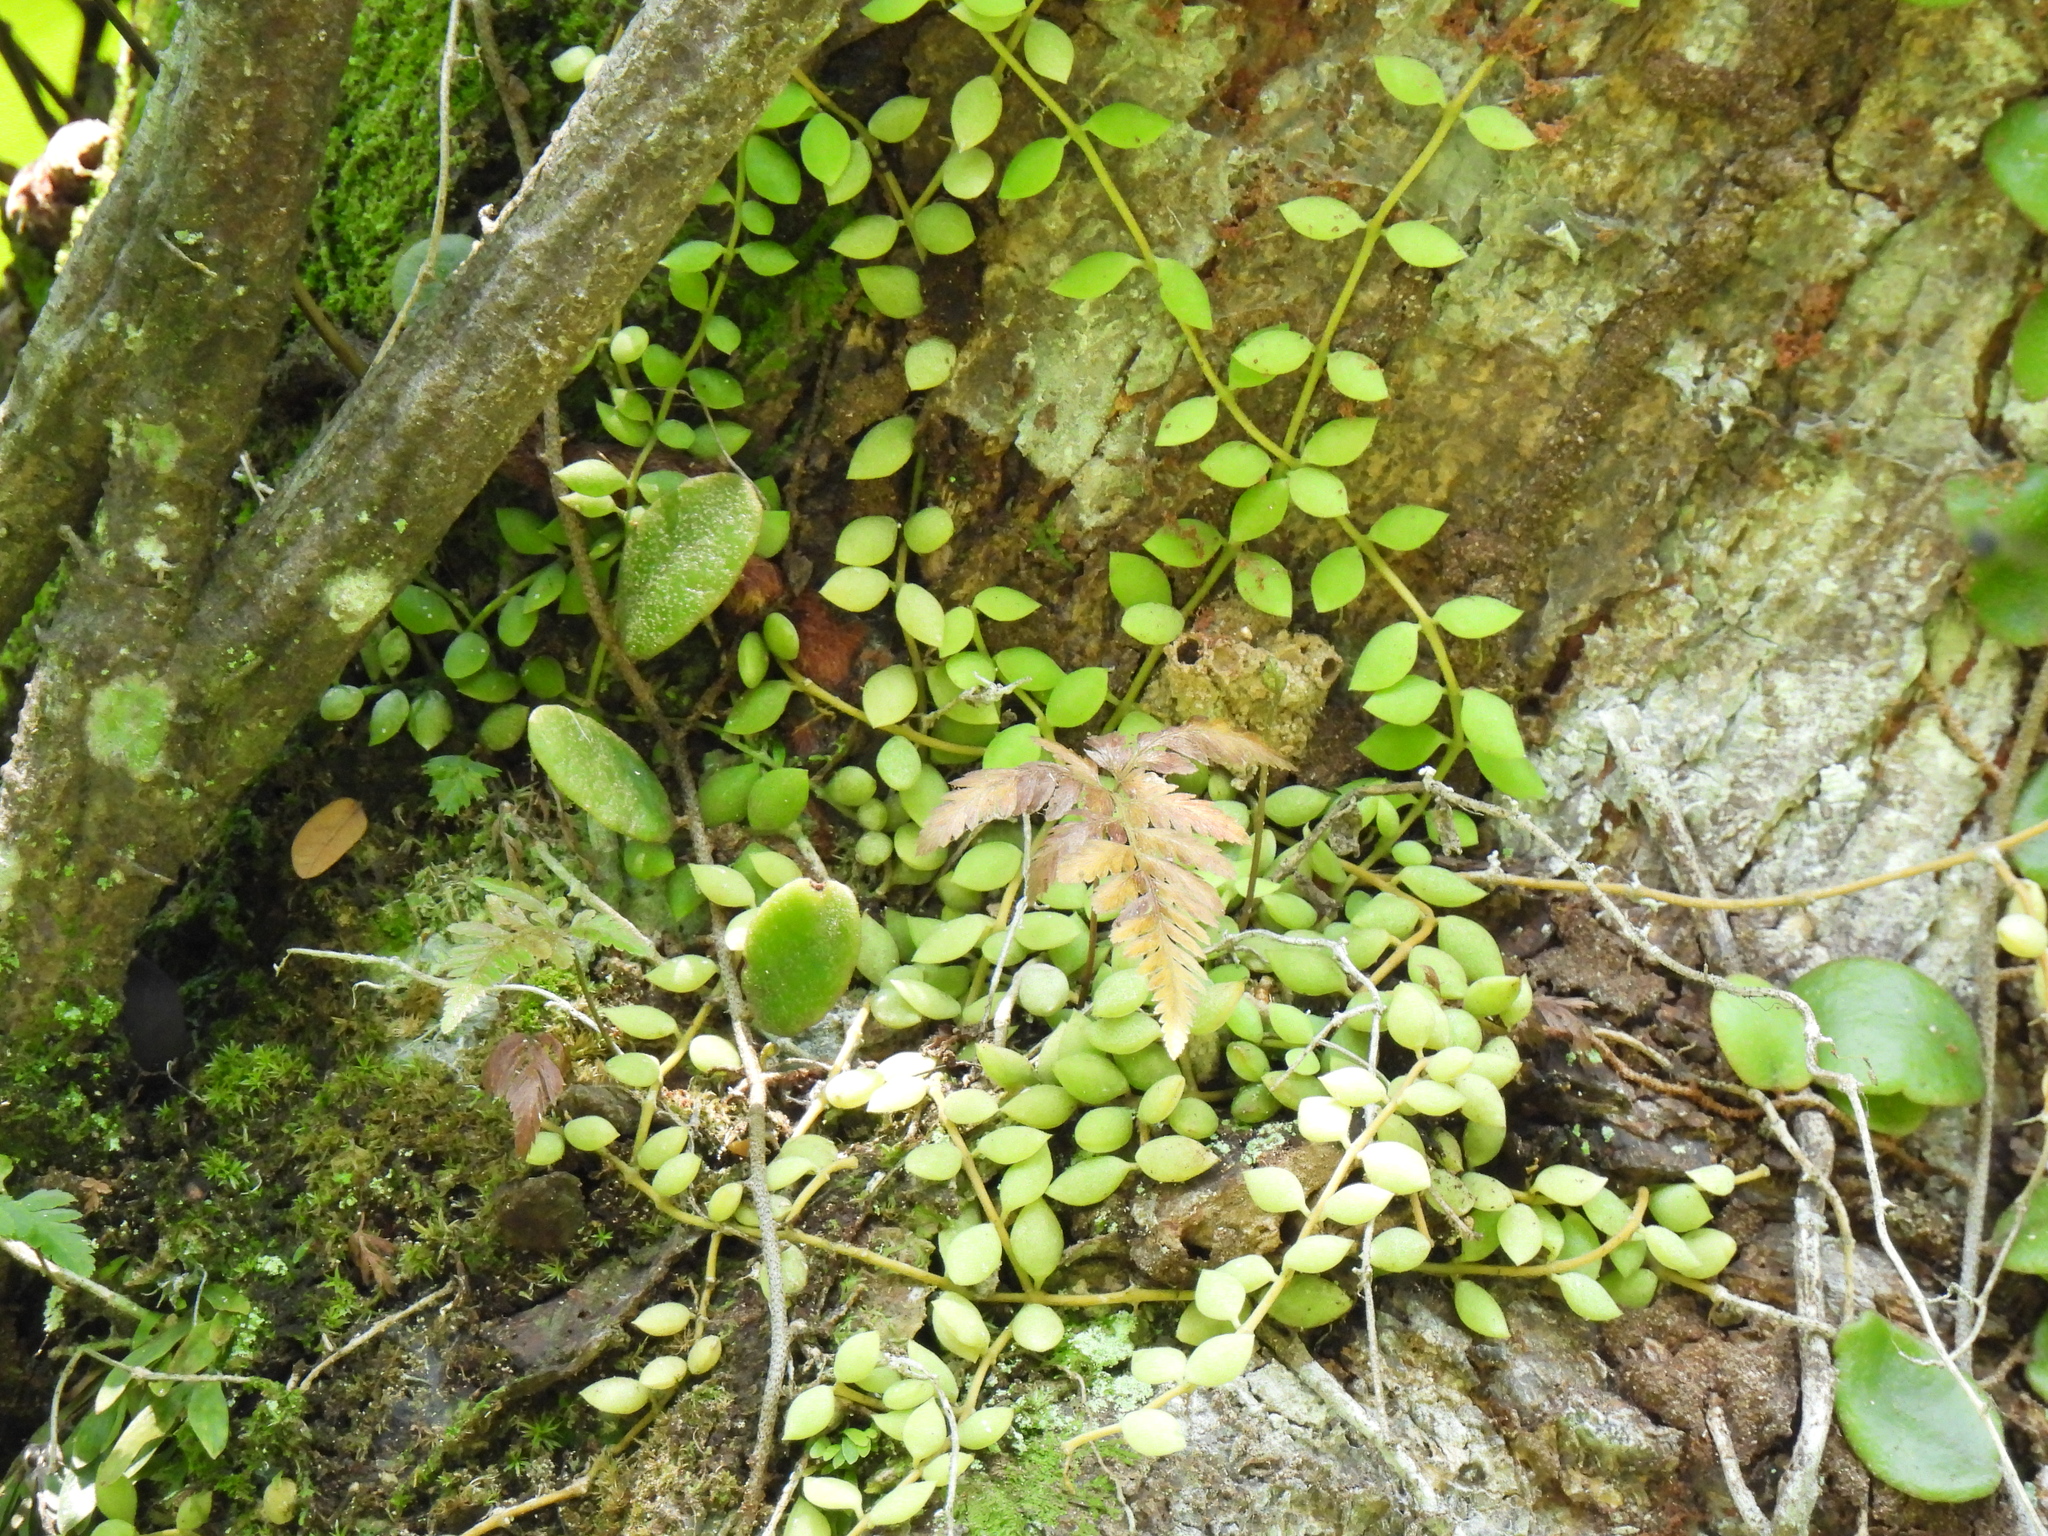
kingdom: Plantae
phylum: Tracheophyta
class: Magnoliopsida
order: Gentianales
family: Apocynaceae
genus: Dischidia
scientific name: Dischidia nummularia
